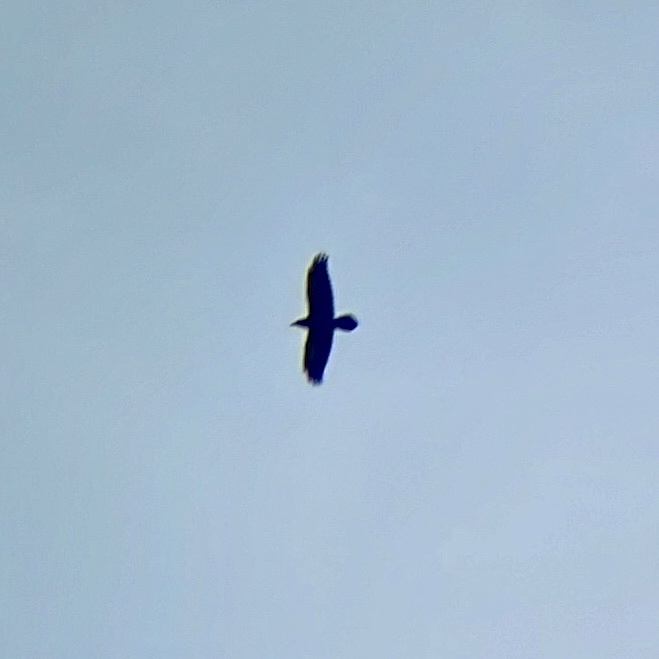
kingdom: Animalia
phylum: Chordata
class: Aves
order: Passeriformes
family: Corvidae
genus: Corvus
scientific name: Corvus corax
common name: Common raven
